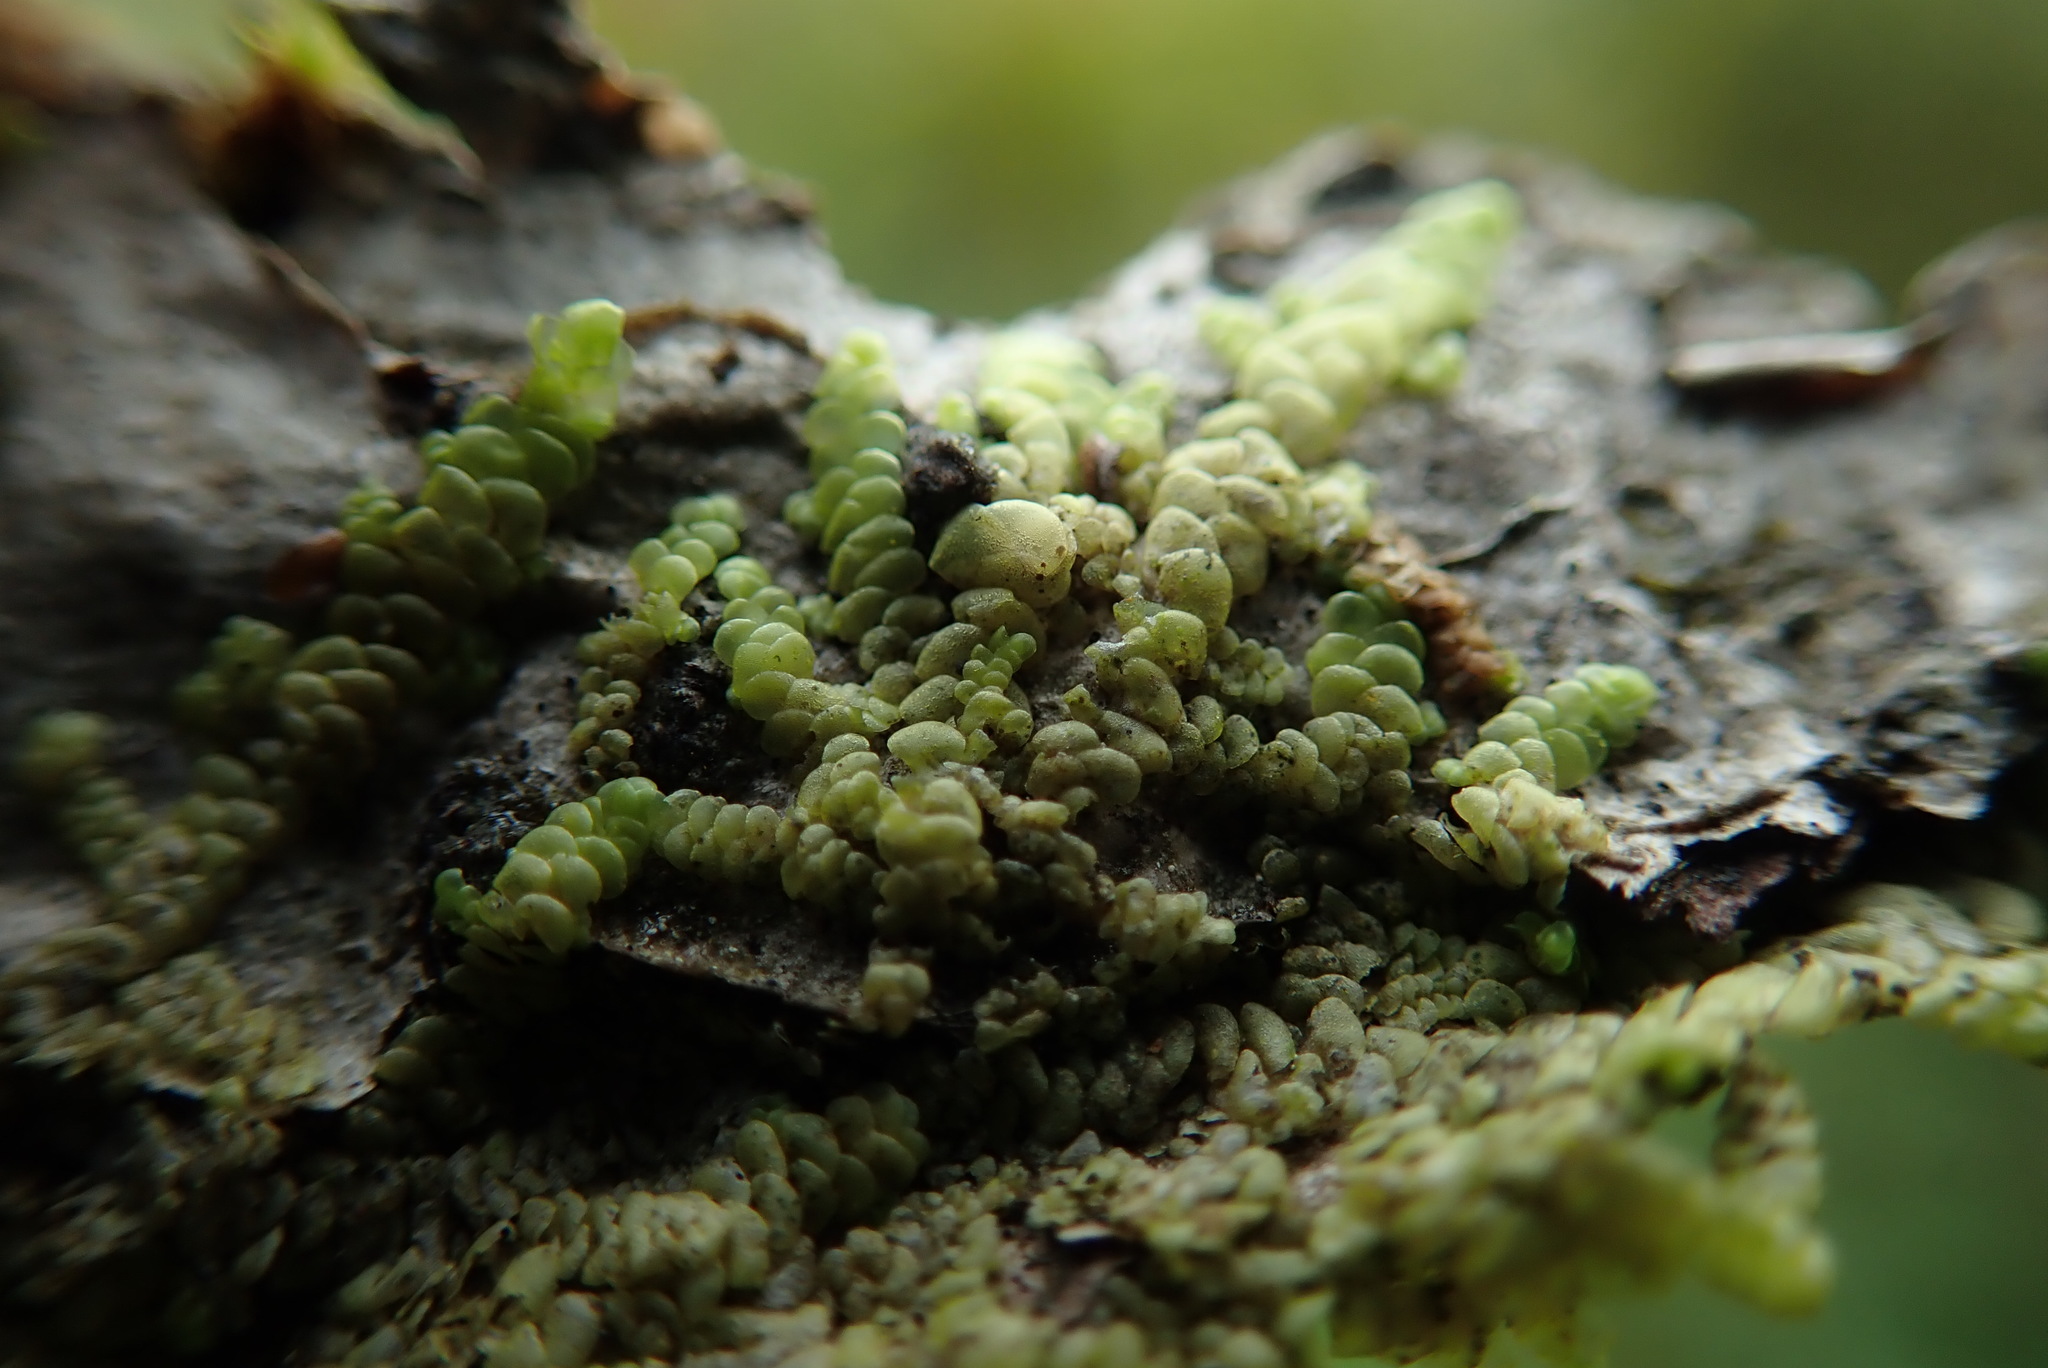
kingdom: Plantae
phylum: Marchantiophyta
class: Jungermanniopsida
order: Porellales
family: Radulaceae
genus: Radula
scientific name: Radula complanata
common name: Flat-leaved scalewort
